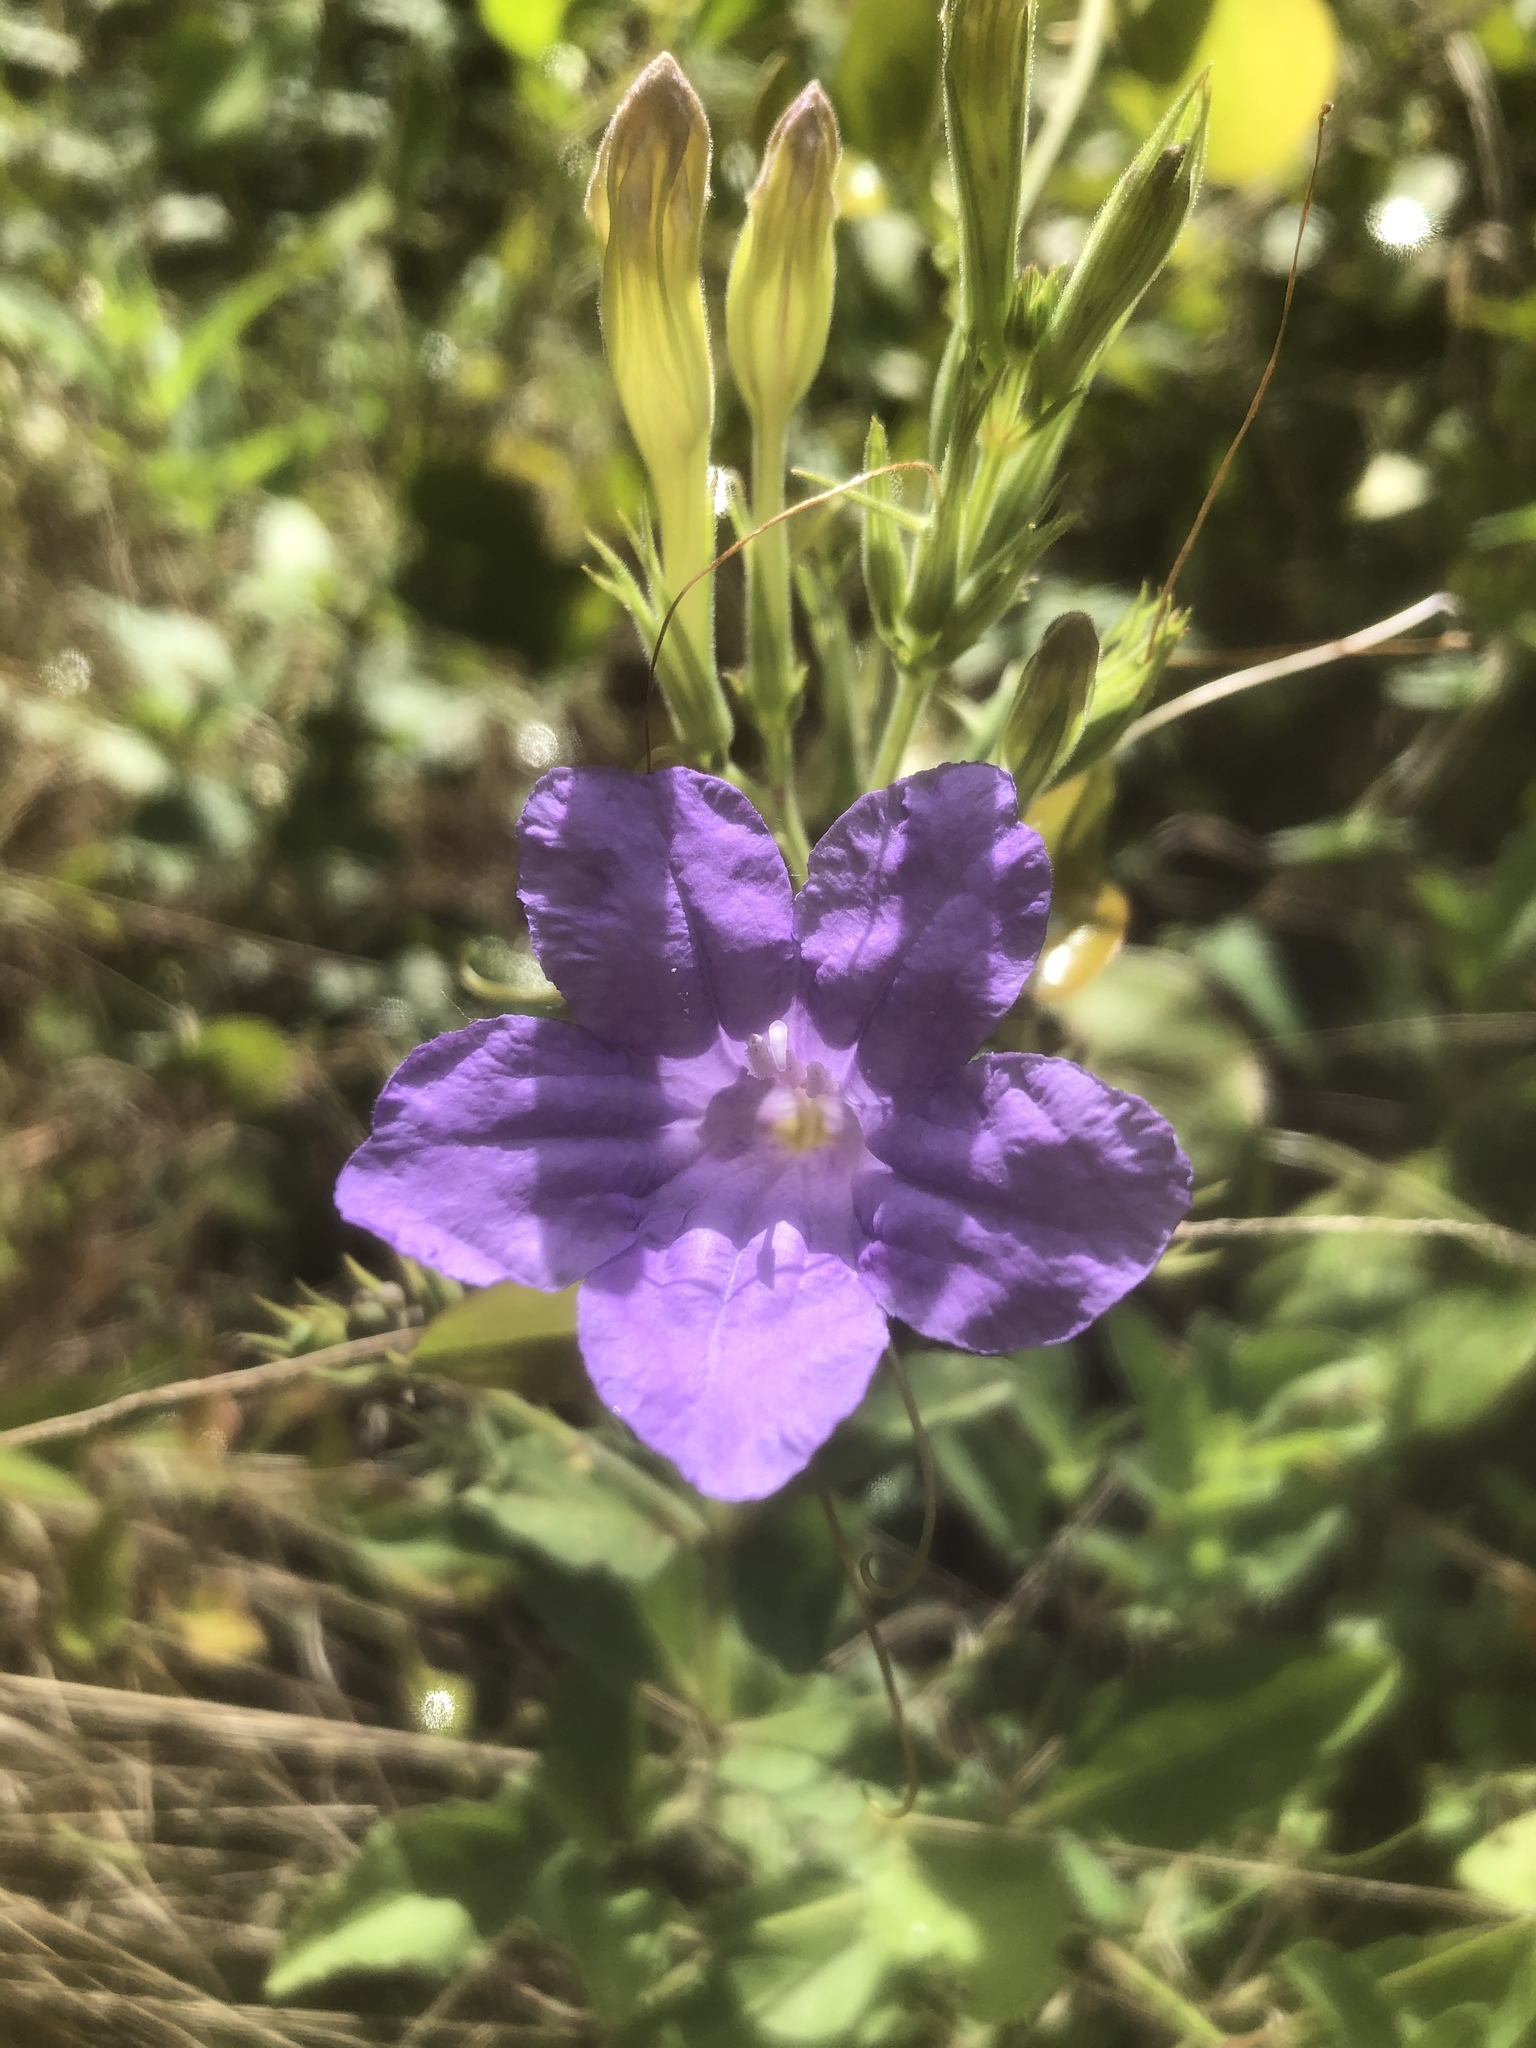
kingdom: Plantae
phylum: Tracheophyta
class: Magnoliopsida
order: Lamiales
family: Acanthaceae
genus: Ruellia
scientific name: Ruellia ciliatiflora
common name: Hairyflower wild petunia
